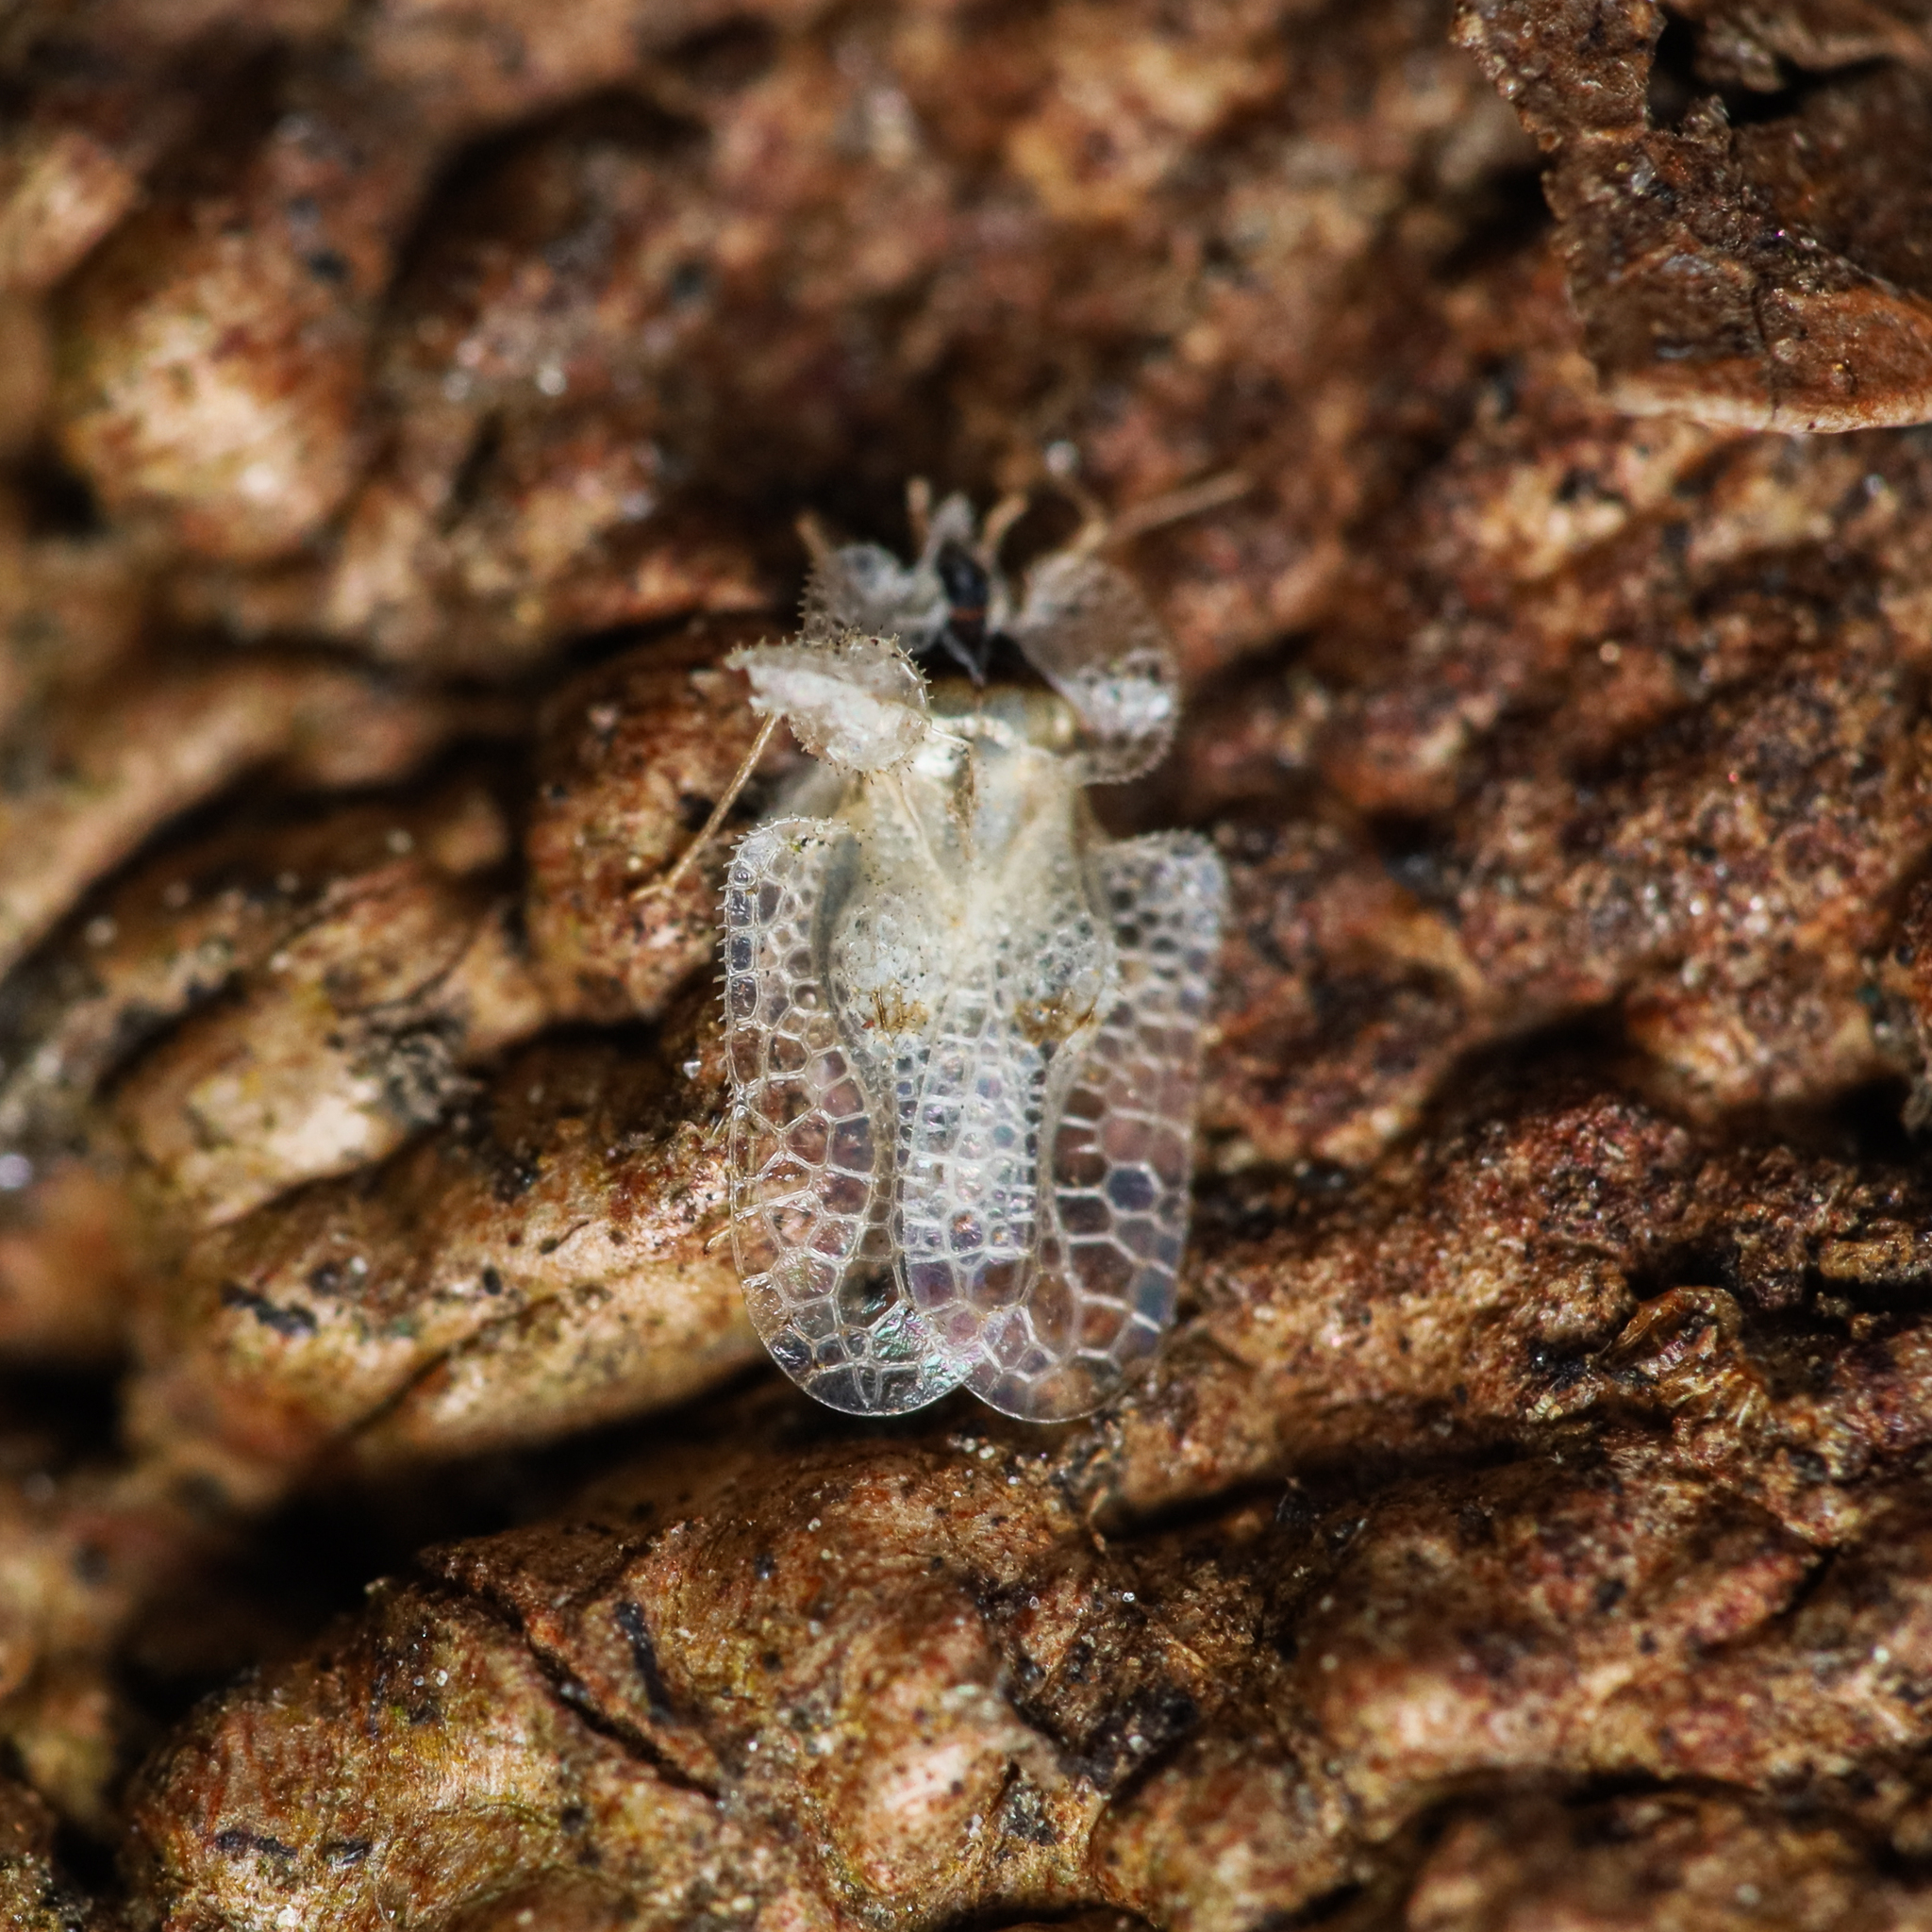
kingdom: Animalia
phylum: Arthropoda
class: Insecta
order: Hemiptera
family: Tingidae
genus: Corythucha
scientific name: Corythucha ciliata
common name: Sycamore lace bug
